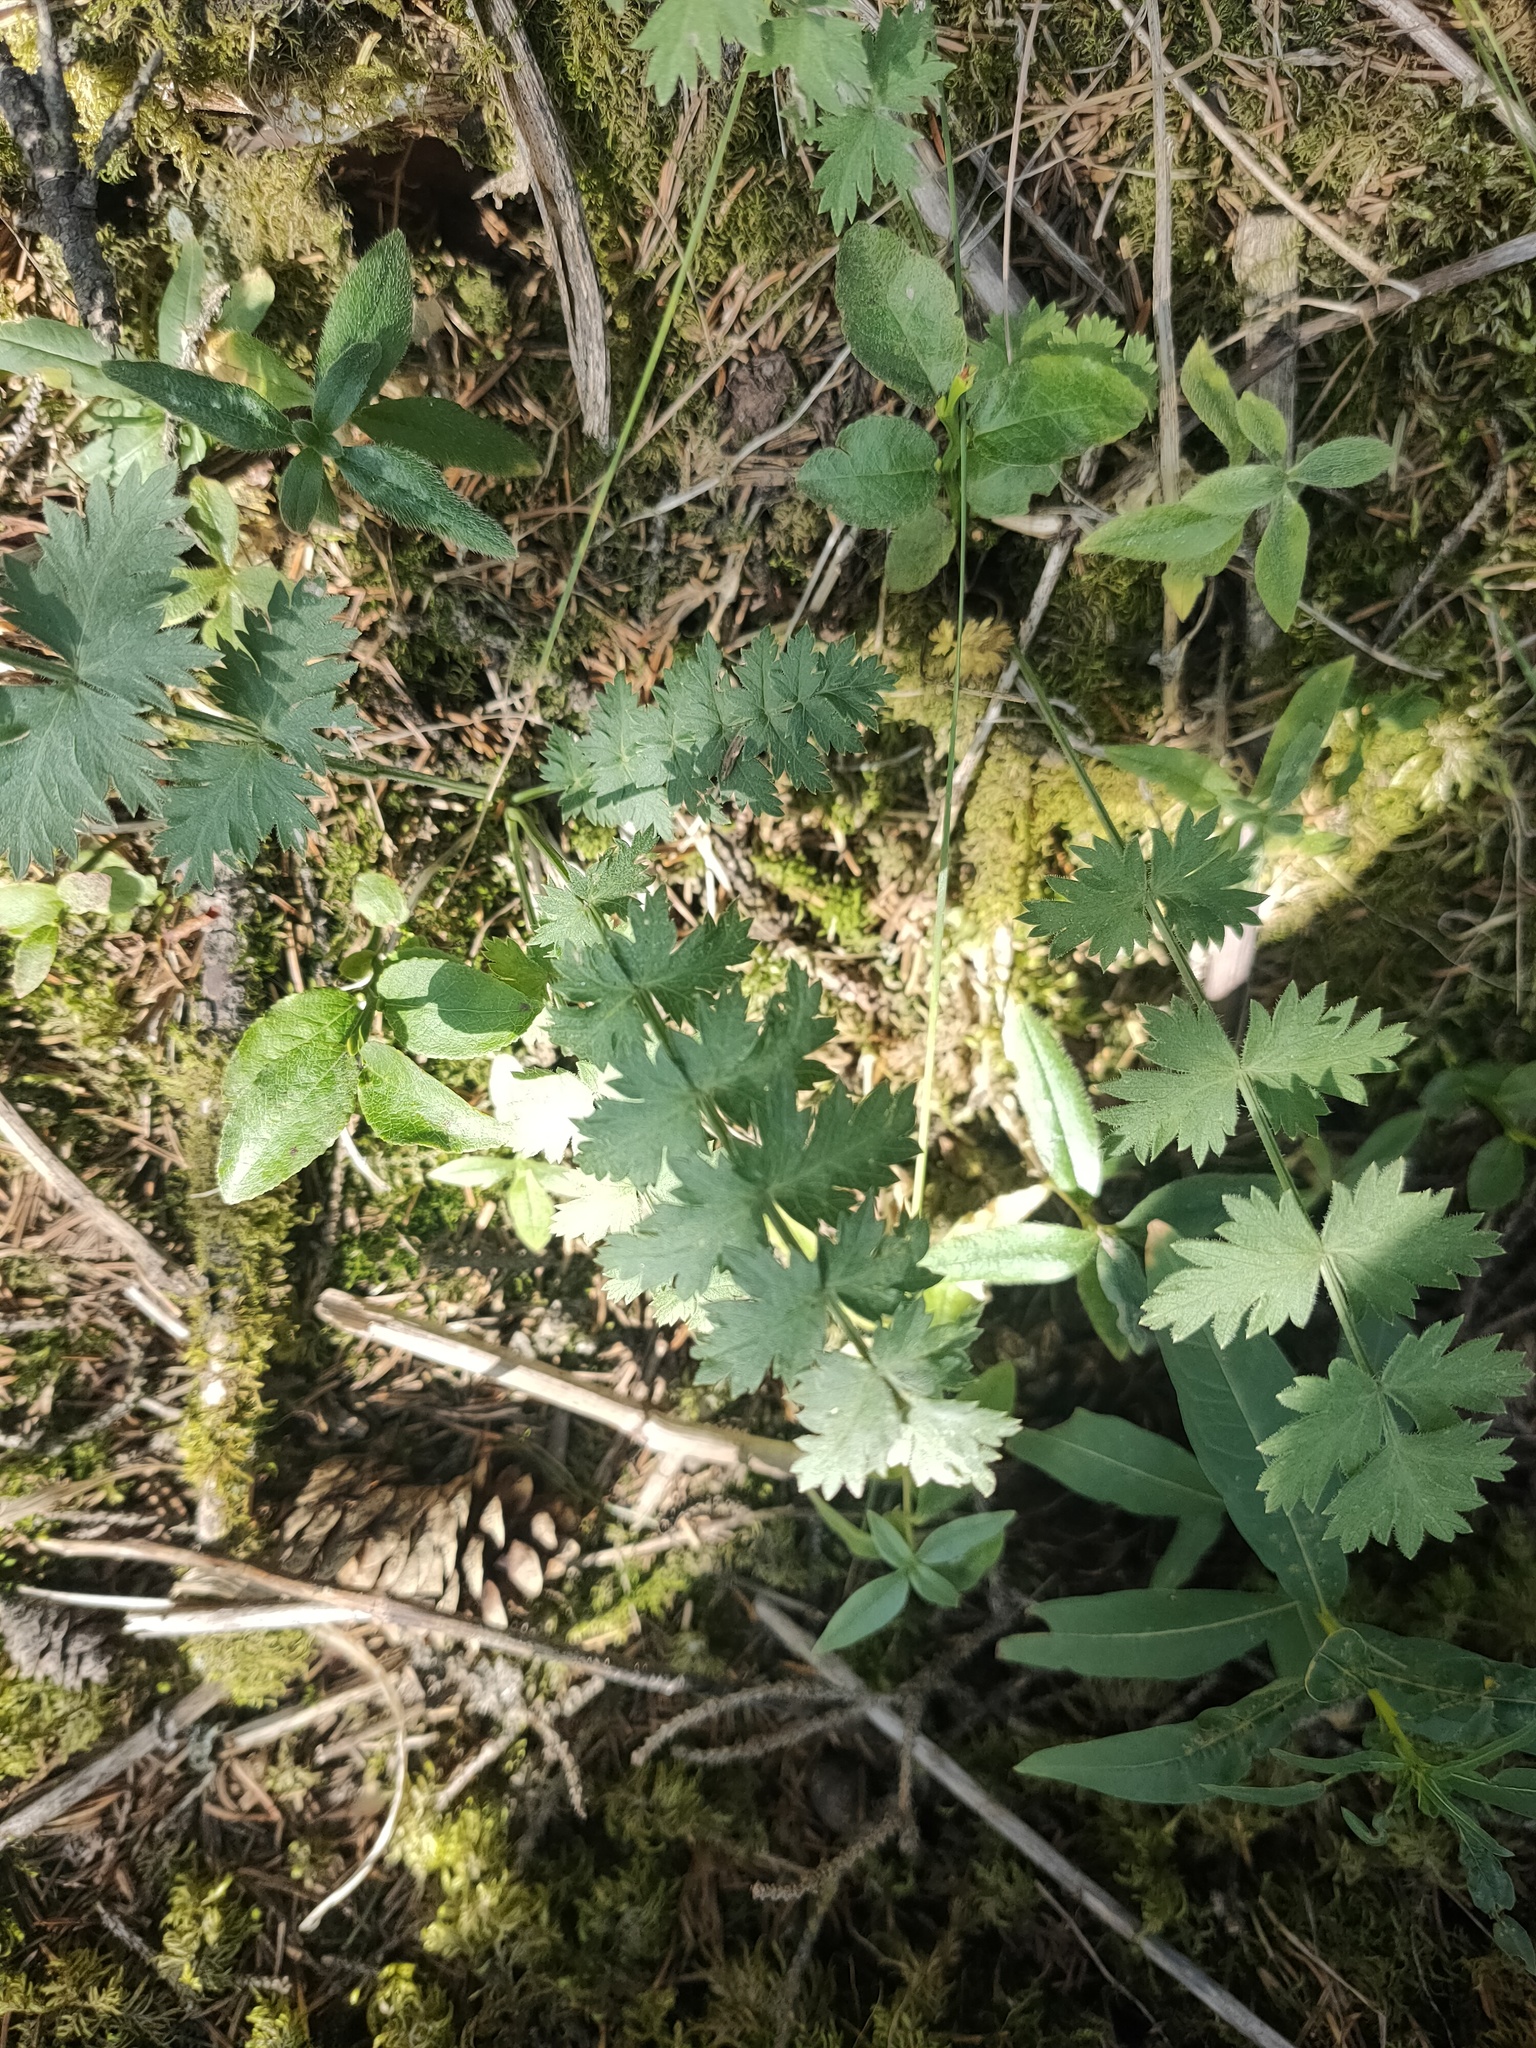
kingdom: Plantae
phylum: Tracheophyta
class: Magnoliopsida
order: Apiales
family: Apiaceae
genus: Pimpinella
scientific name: Pimpinella saxifraga
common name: Burnet-saxifrage
